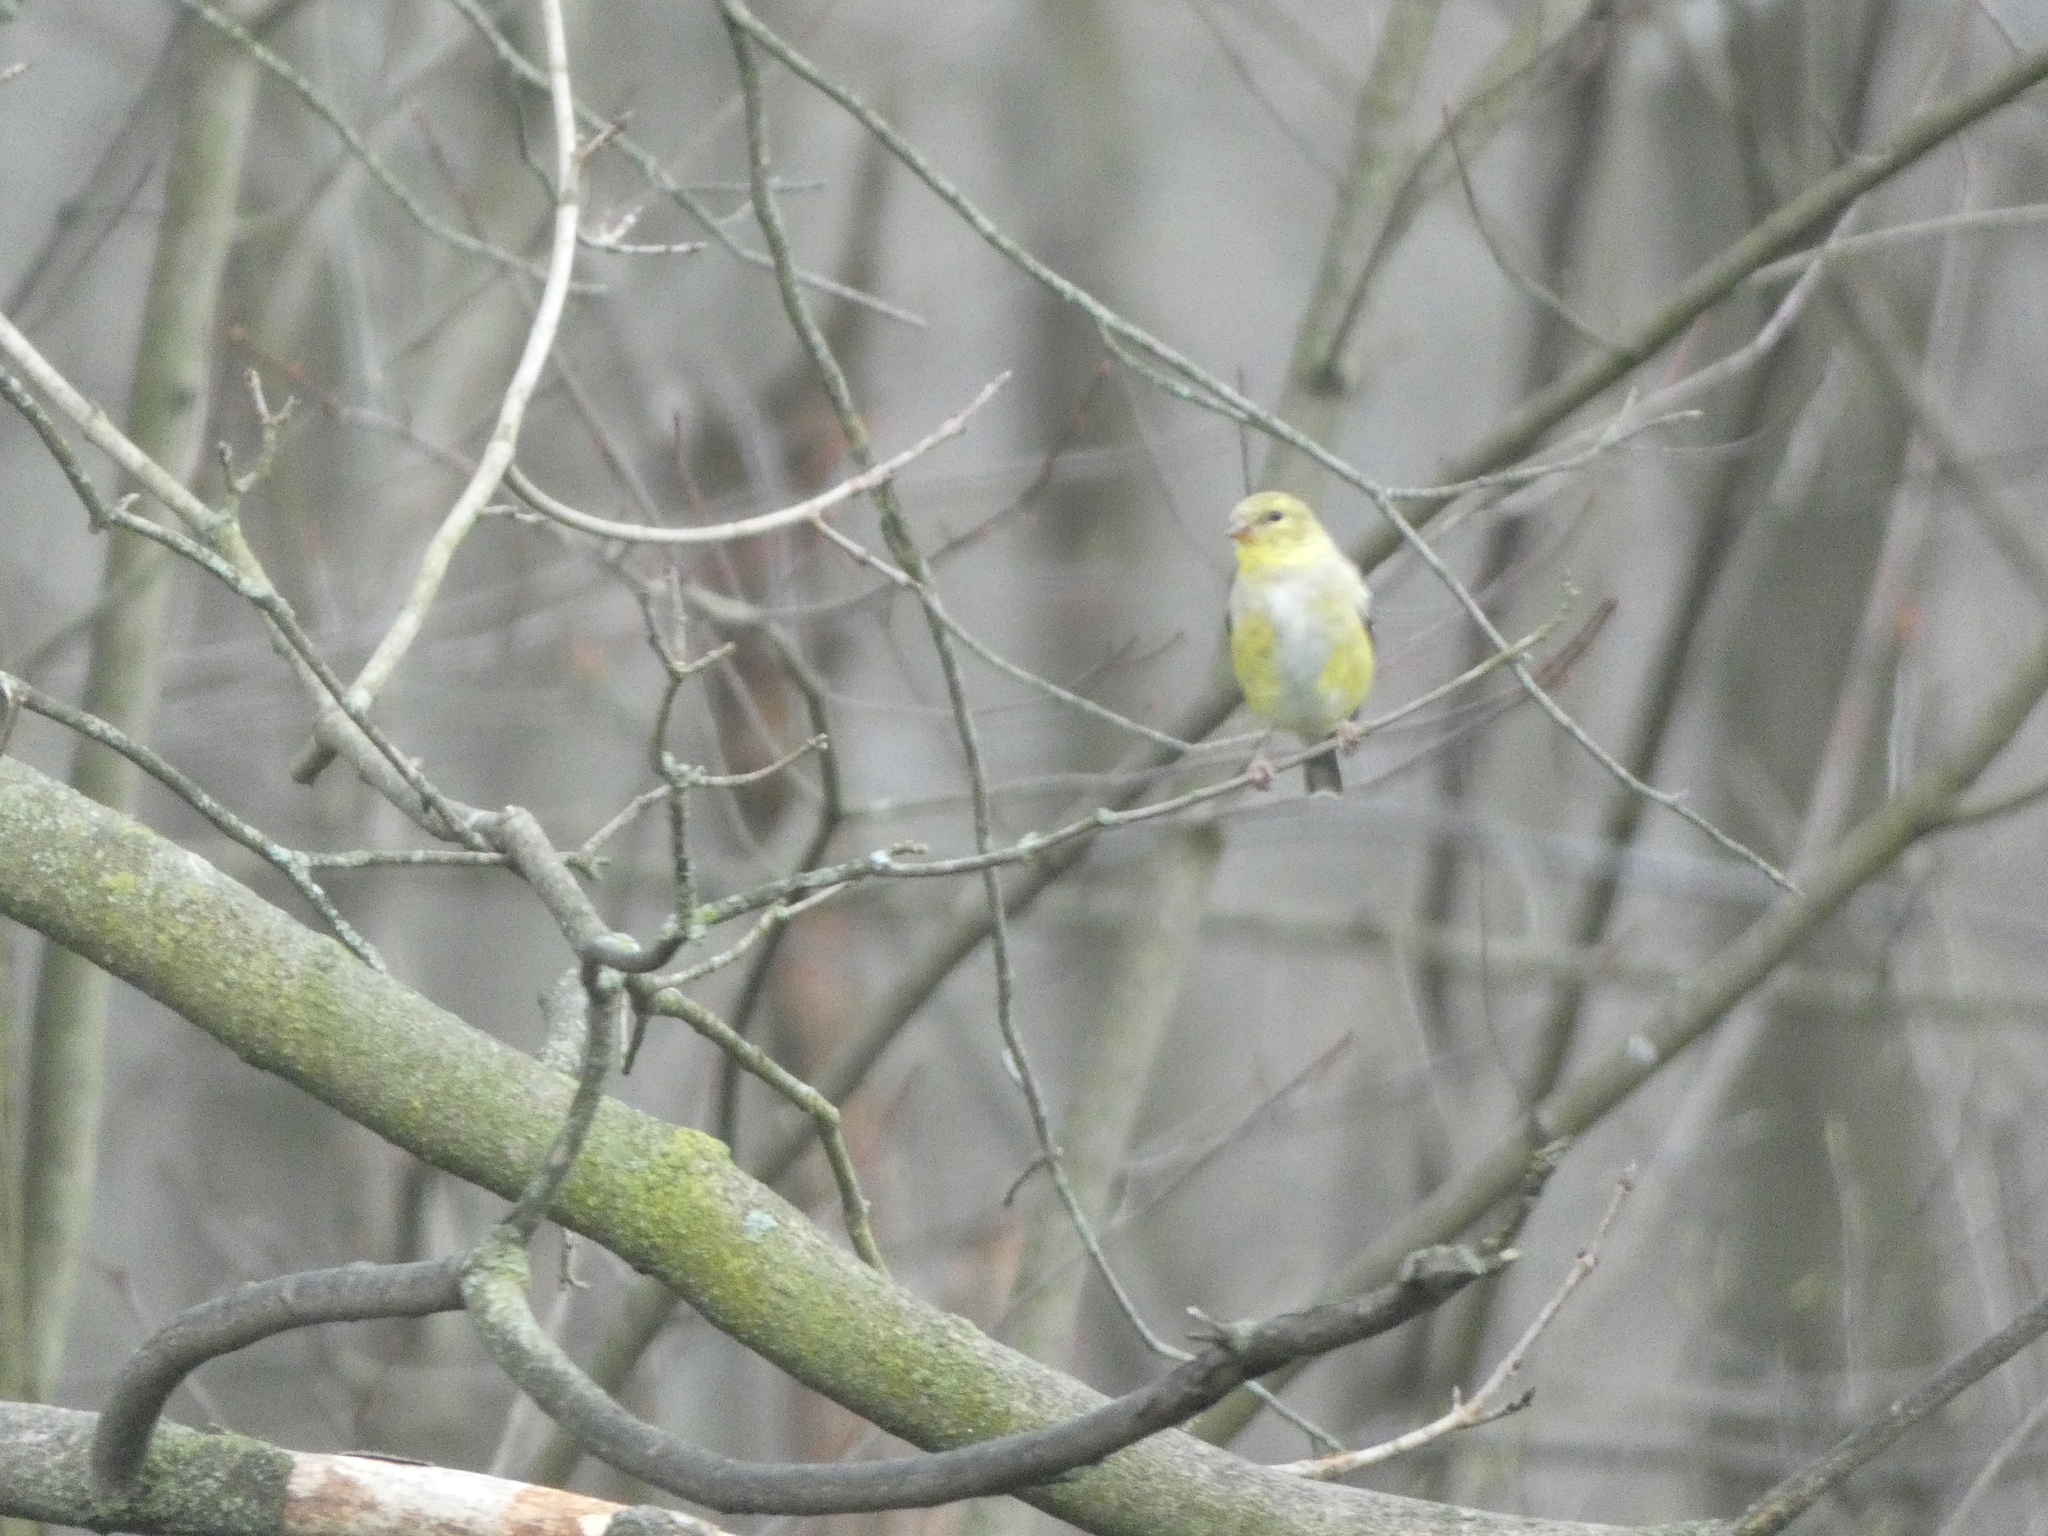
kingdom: Animalia
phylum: Chordata
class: Aves
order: Passeriformes
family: Fringillidae
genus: Spinus
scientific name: Spinus tristis
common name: American goldfinch
